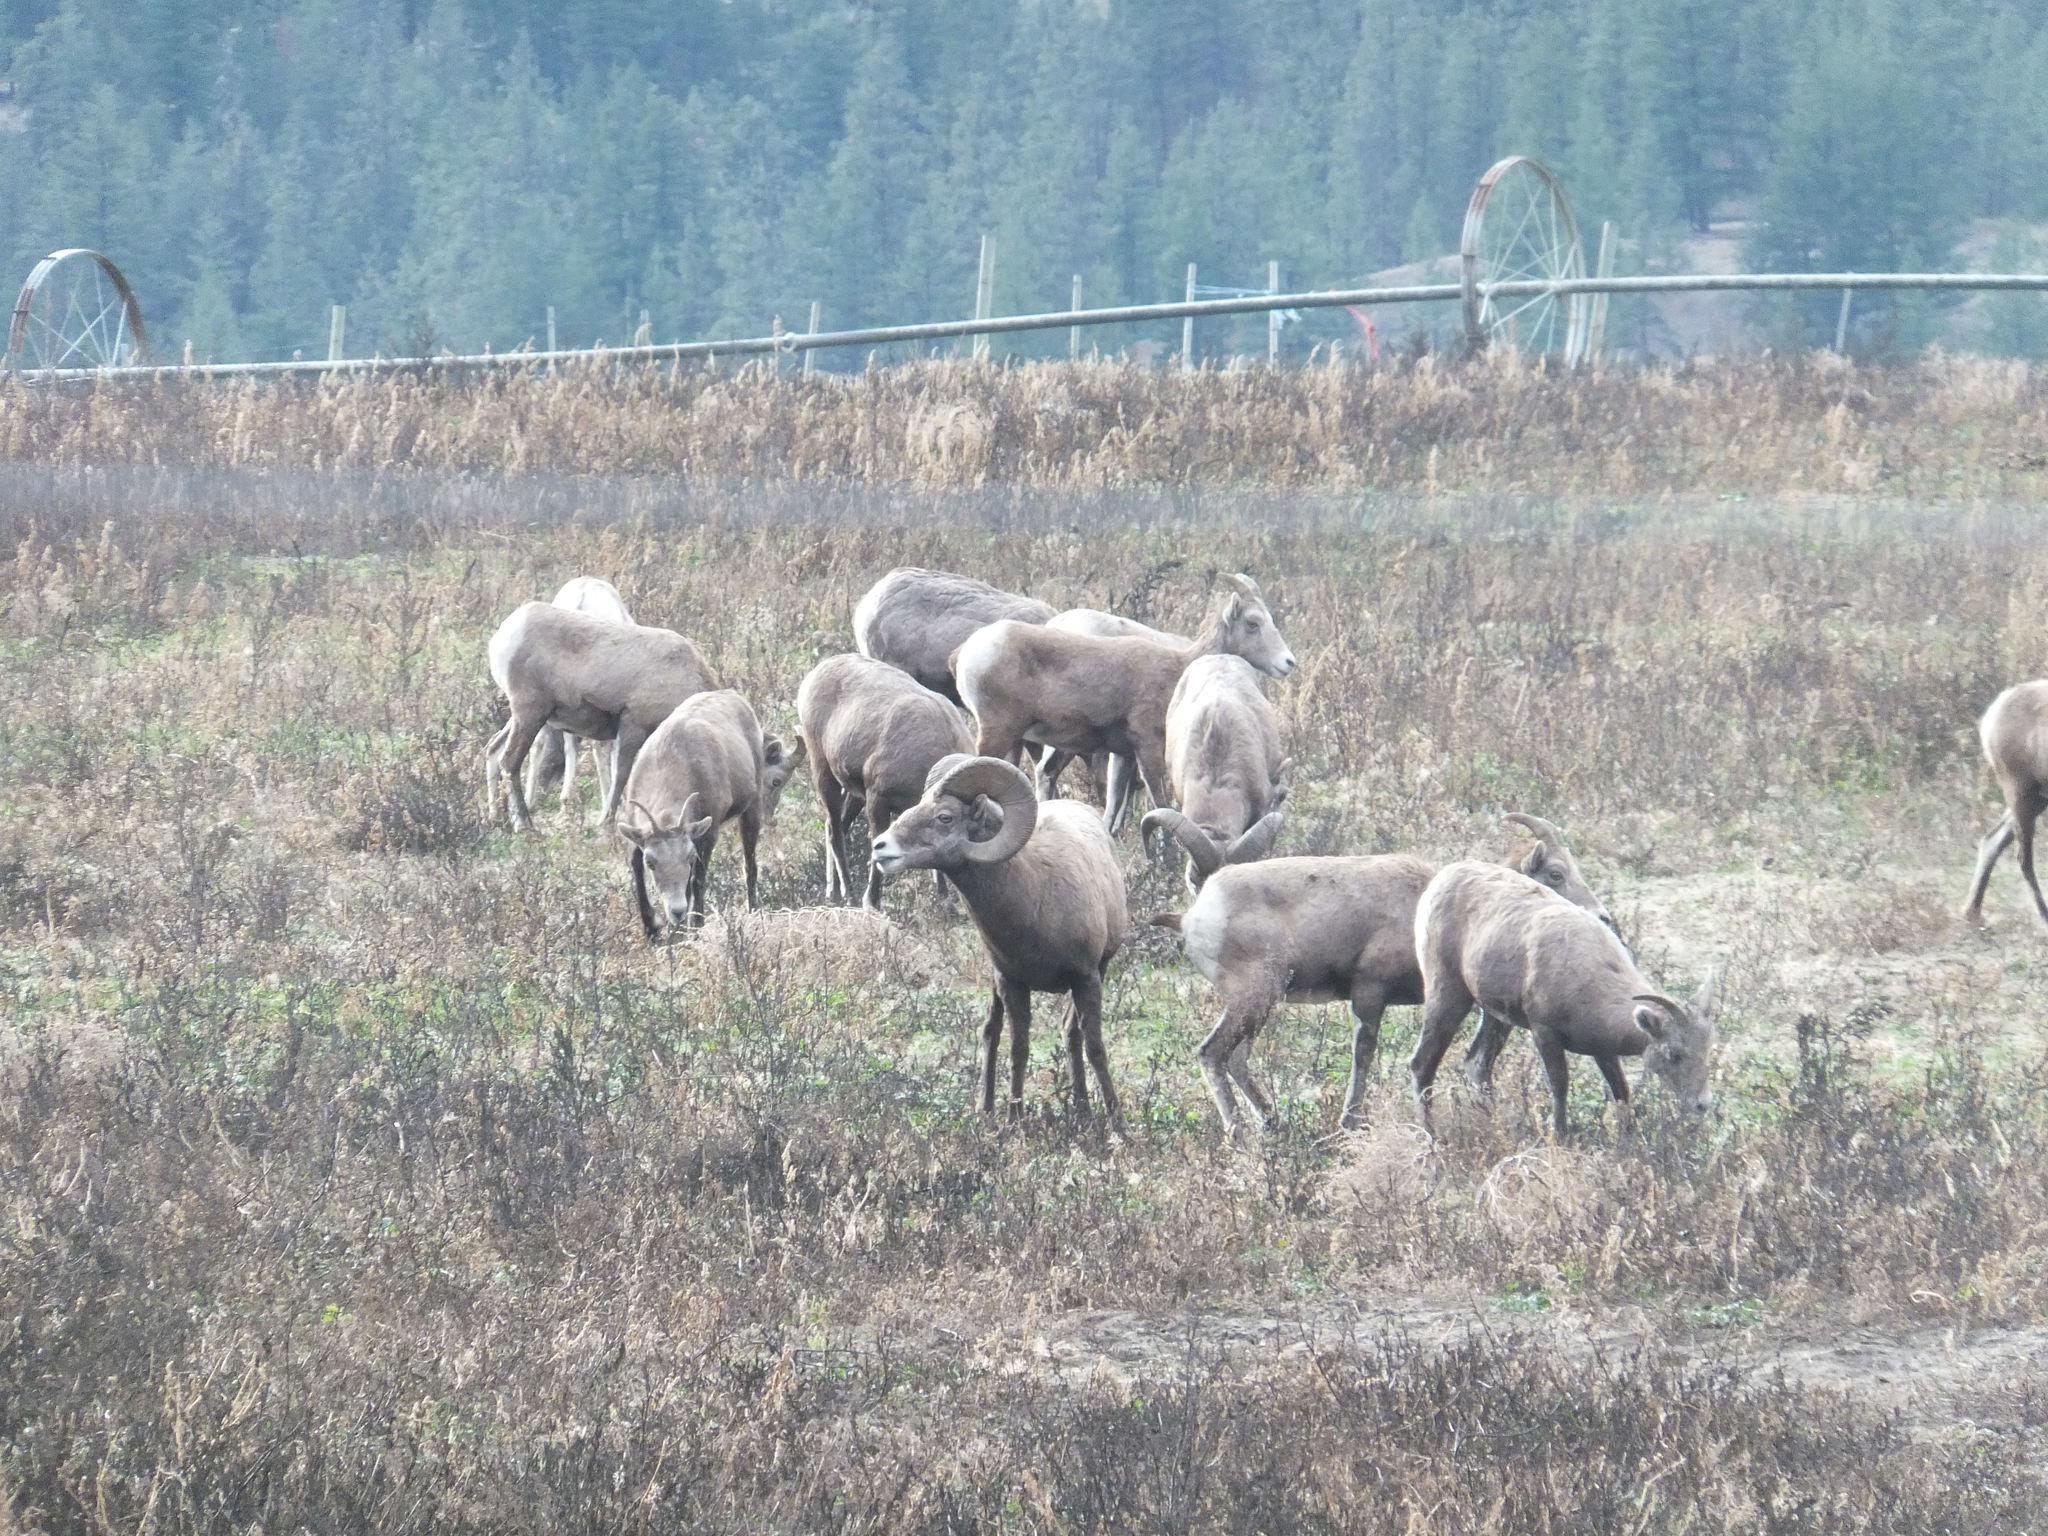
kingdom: Animalia
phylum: Chordata
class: Mammalia
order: Artiodactyla
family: Bovidae
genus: Ovis
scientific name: Ovis canadensis
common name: Bighorn sheep
